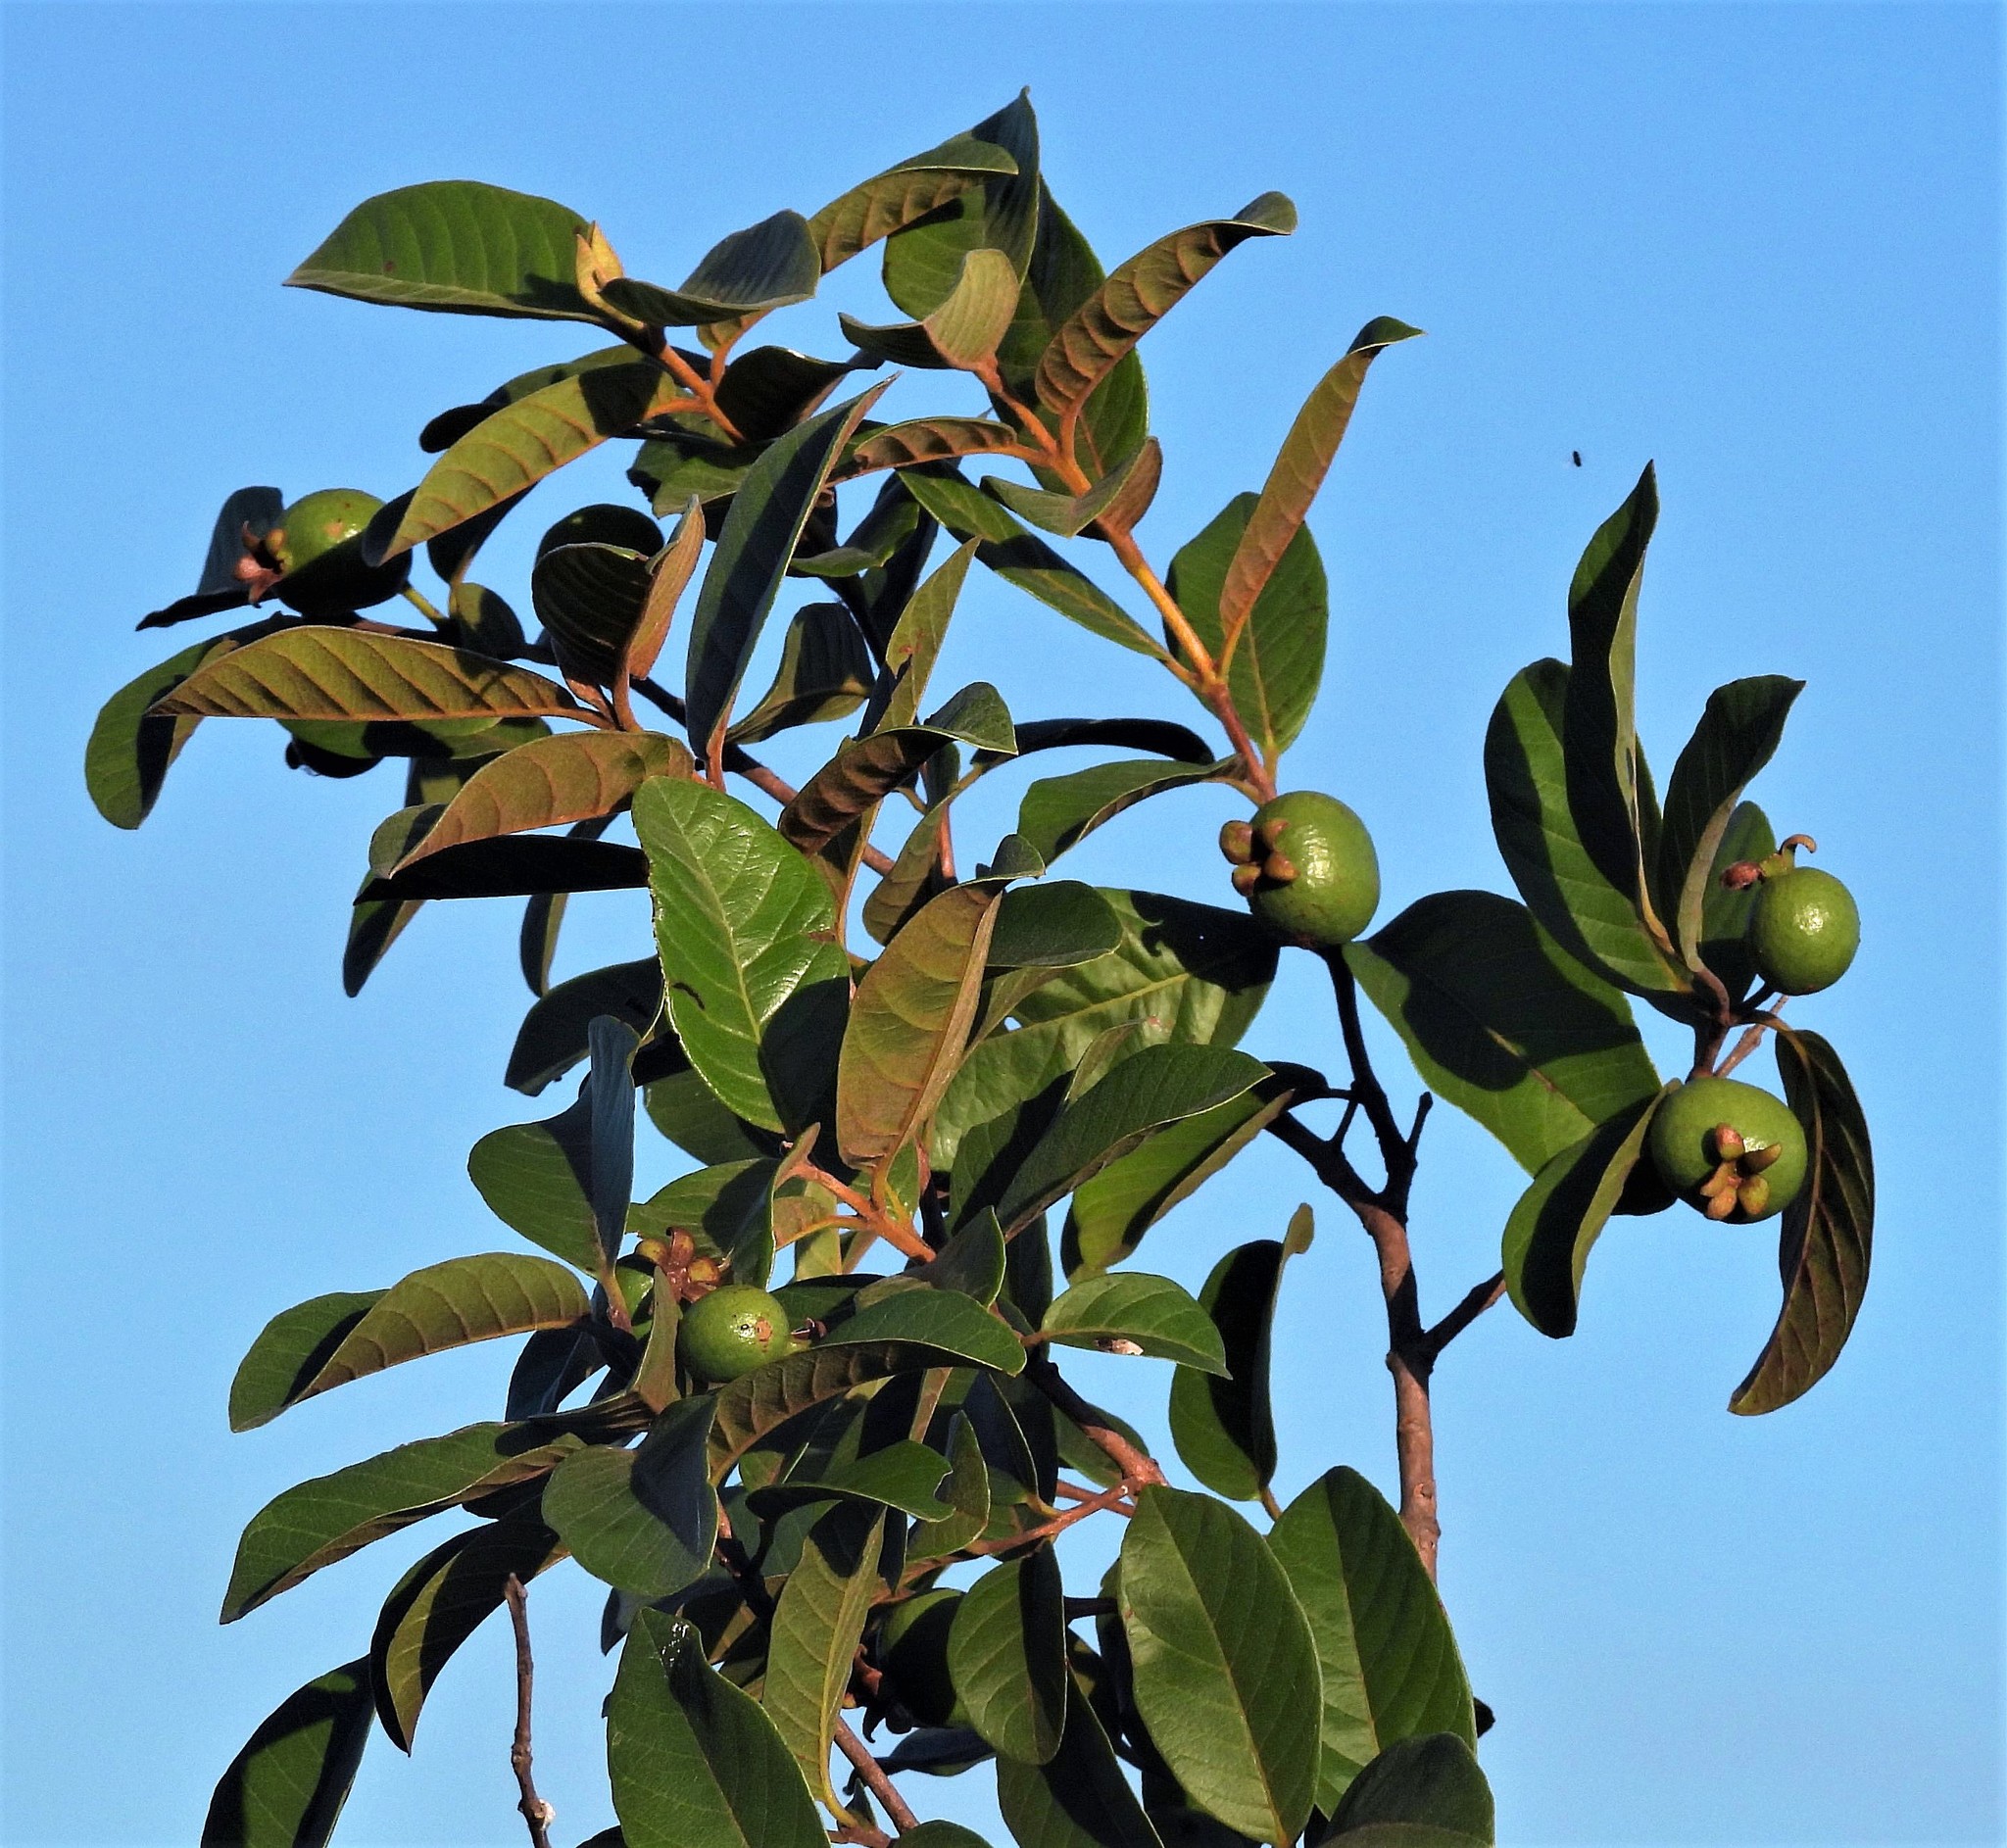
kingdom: Plantae
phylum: Tracheophyta
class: Magnoliopsida
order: Myrtales
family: Myrtaceae
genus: Psidium
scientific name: Psidium guajava
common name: Guava
